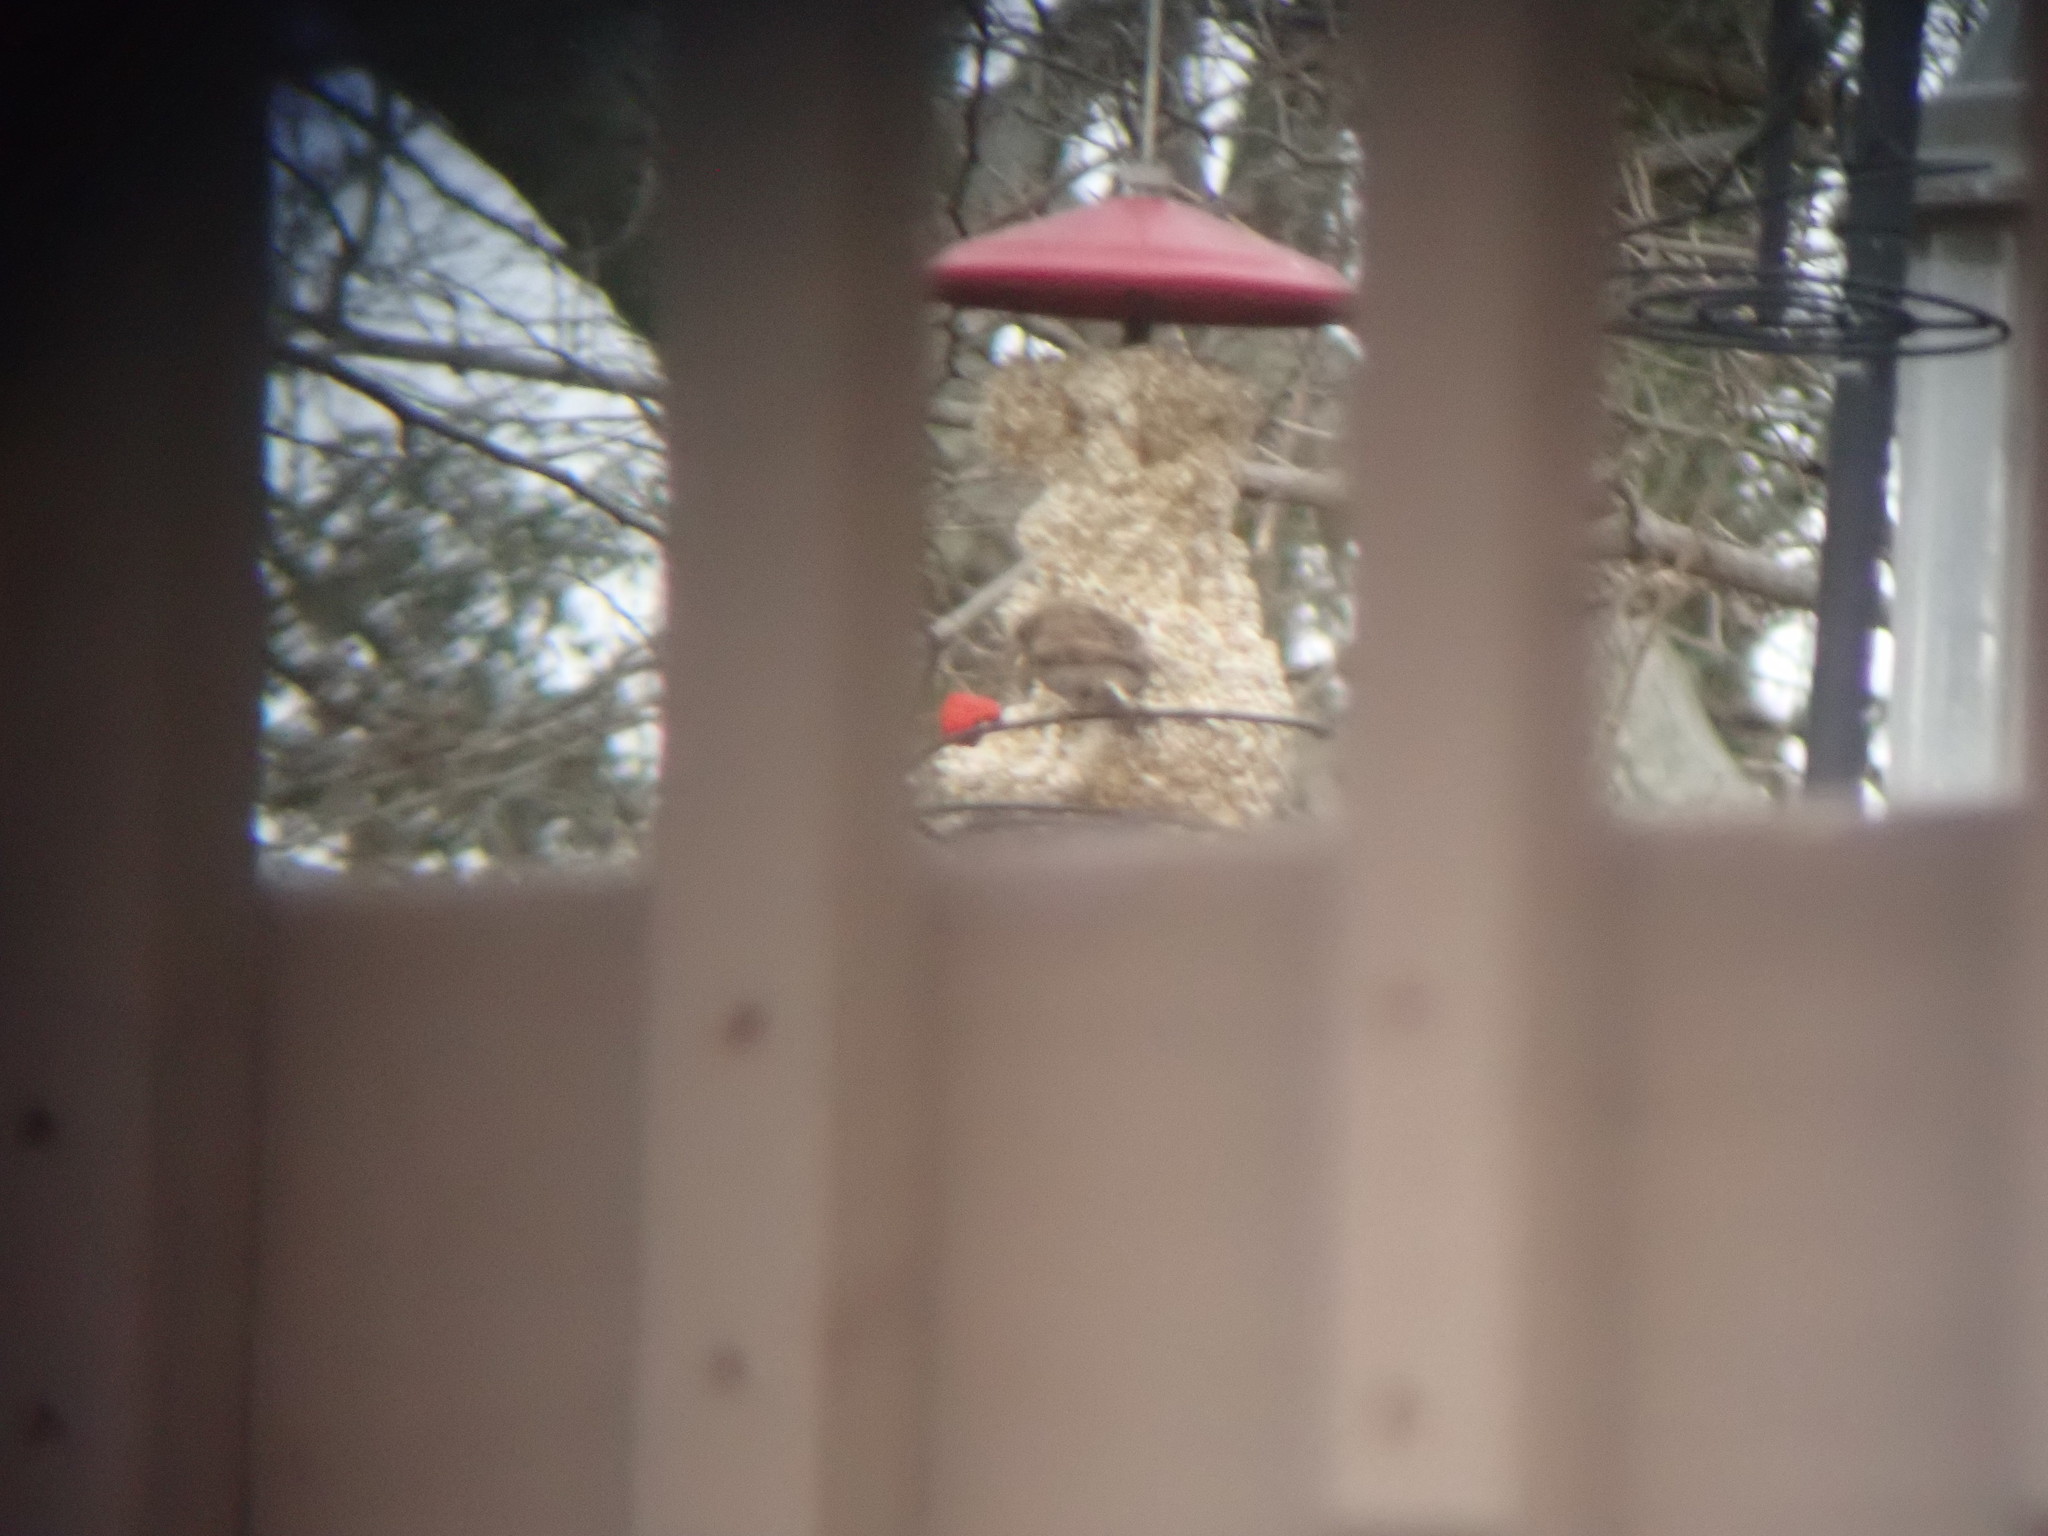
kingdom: Animalia
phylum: Chordata
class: Aves
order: Passeriformes
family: Cardinalidae
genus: Cardinalis
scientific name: Cardinalis cardinalis
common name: Northern cardinal
